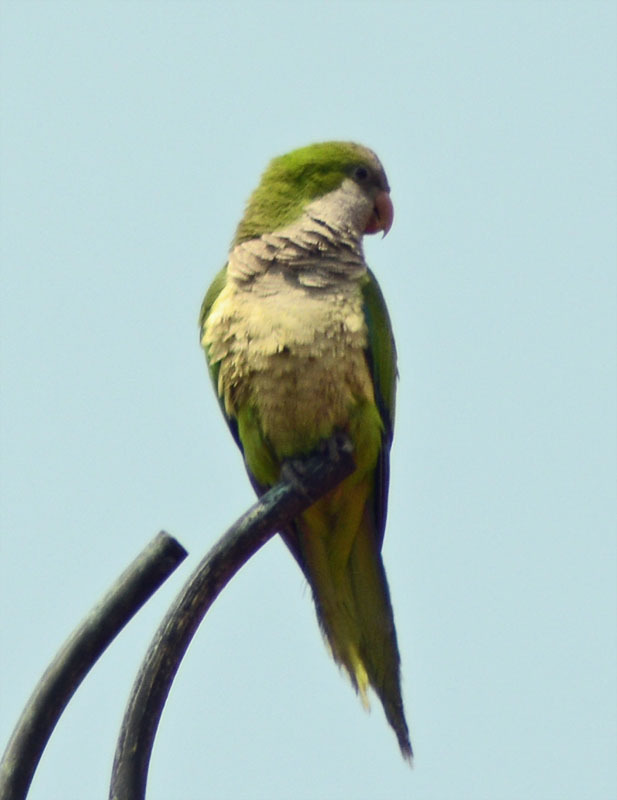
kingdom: Animalia
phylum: Chordata
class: Aves
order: Psittaciformes
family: Psittacidae
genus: Myiopsitta
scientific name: Myiopsitta monachus
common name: Monk parakeet
